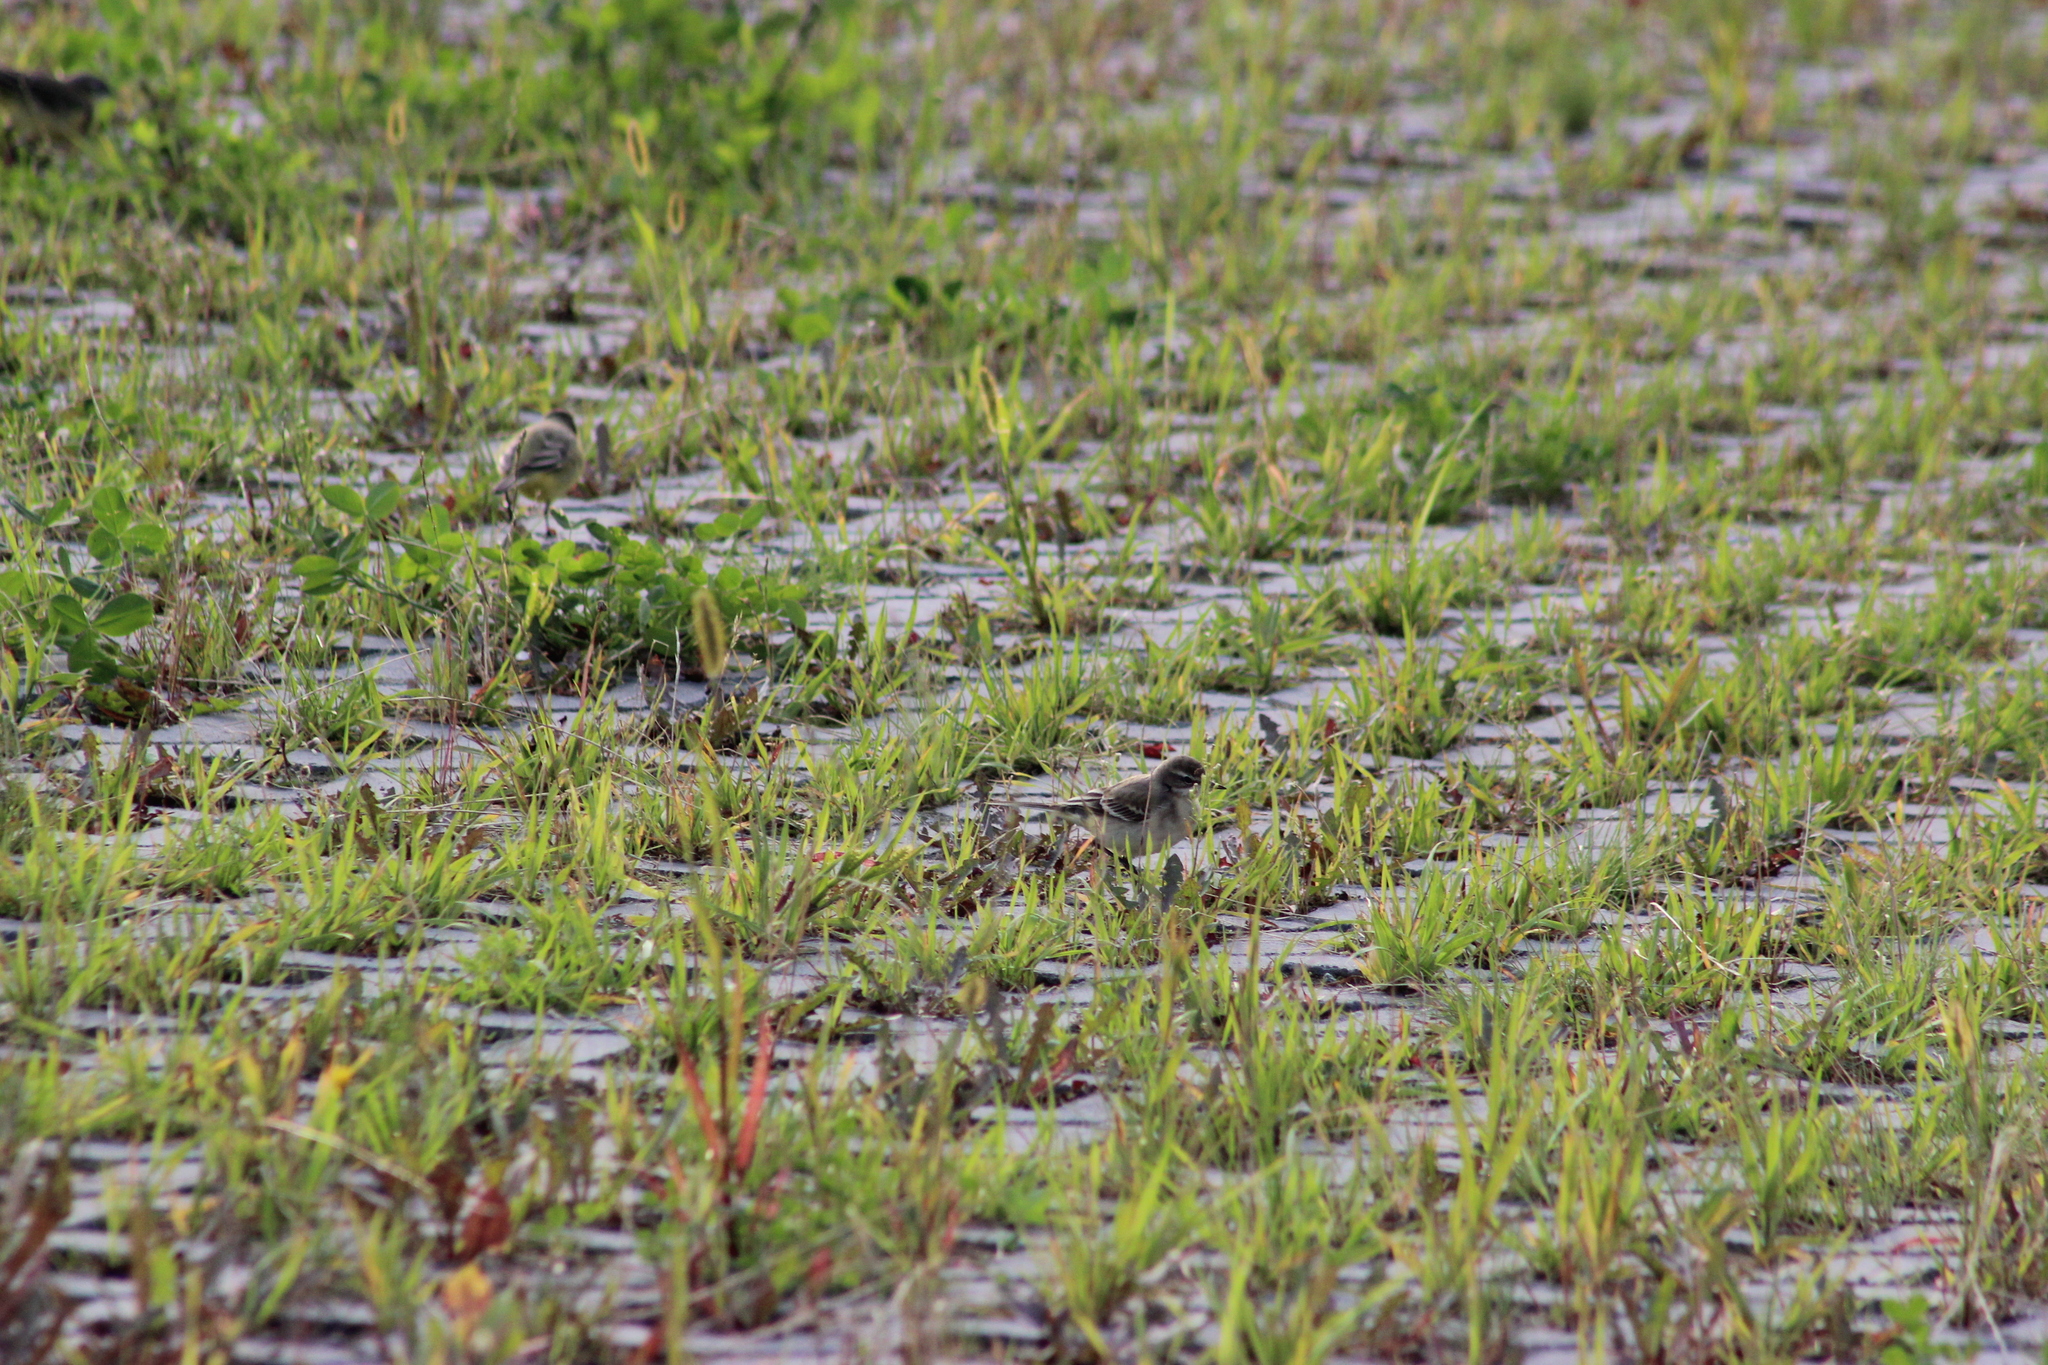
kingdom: Animalia
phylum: Chordata
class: Aves
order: Passeriformes
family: Motacillidae
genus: Motacilla
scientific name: Motacilla flava
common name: Western yellow wagtail
